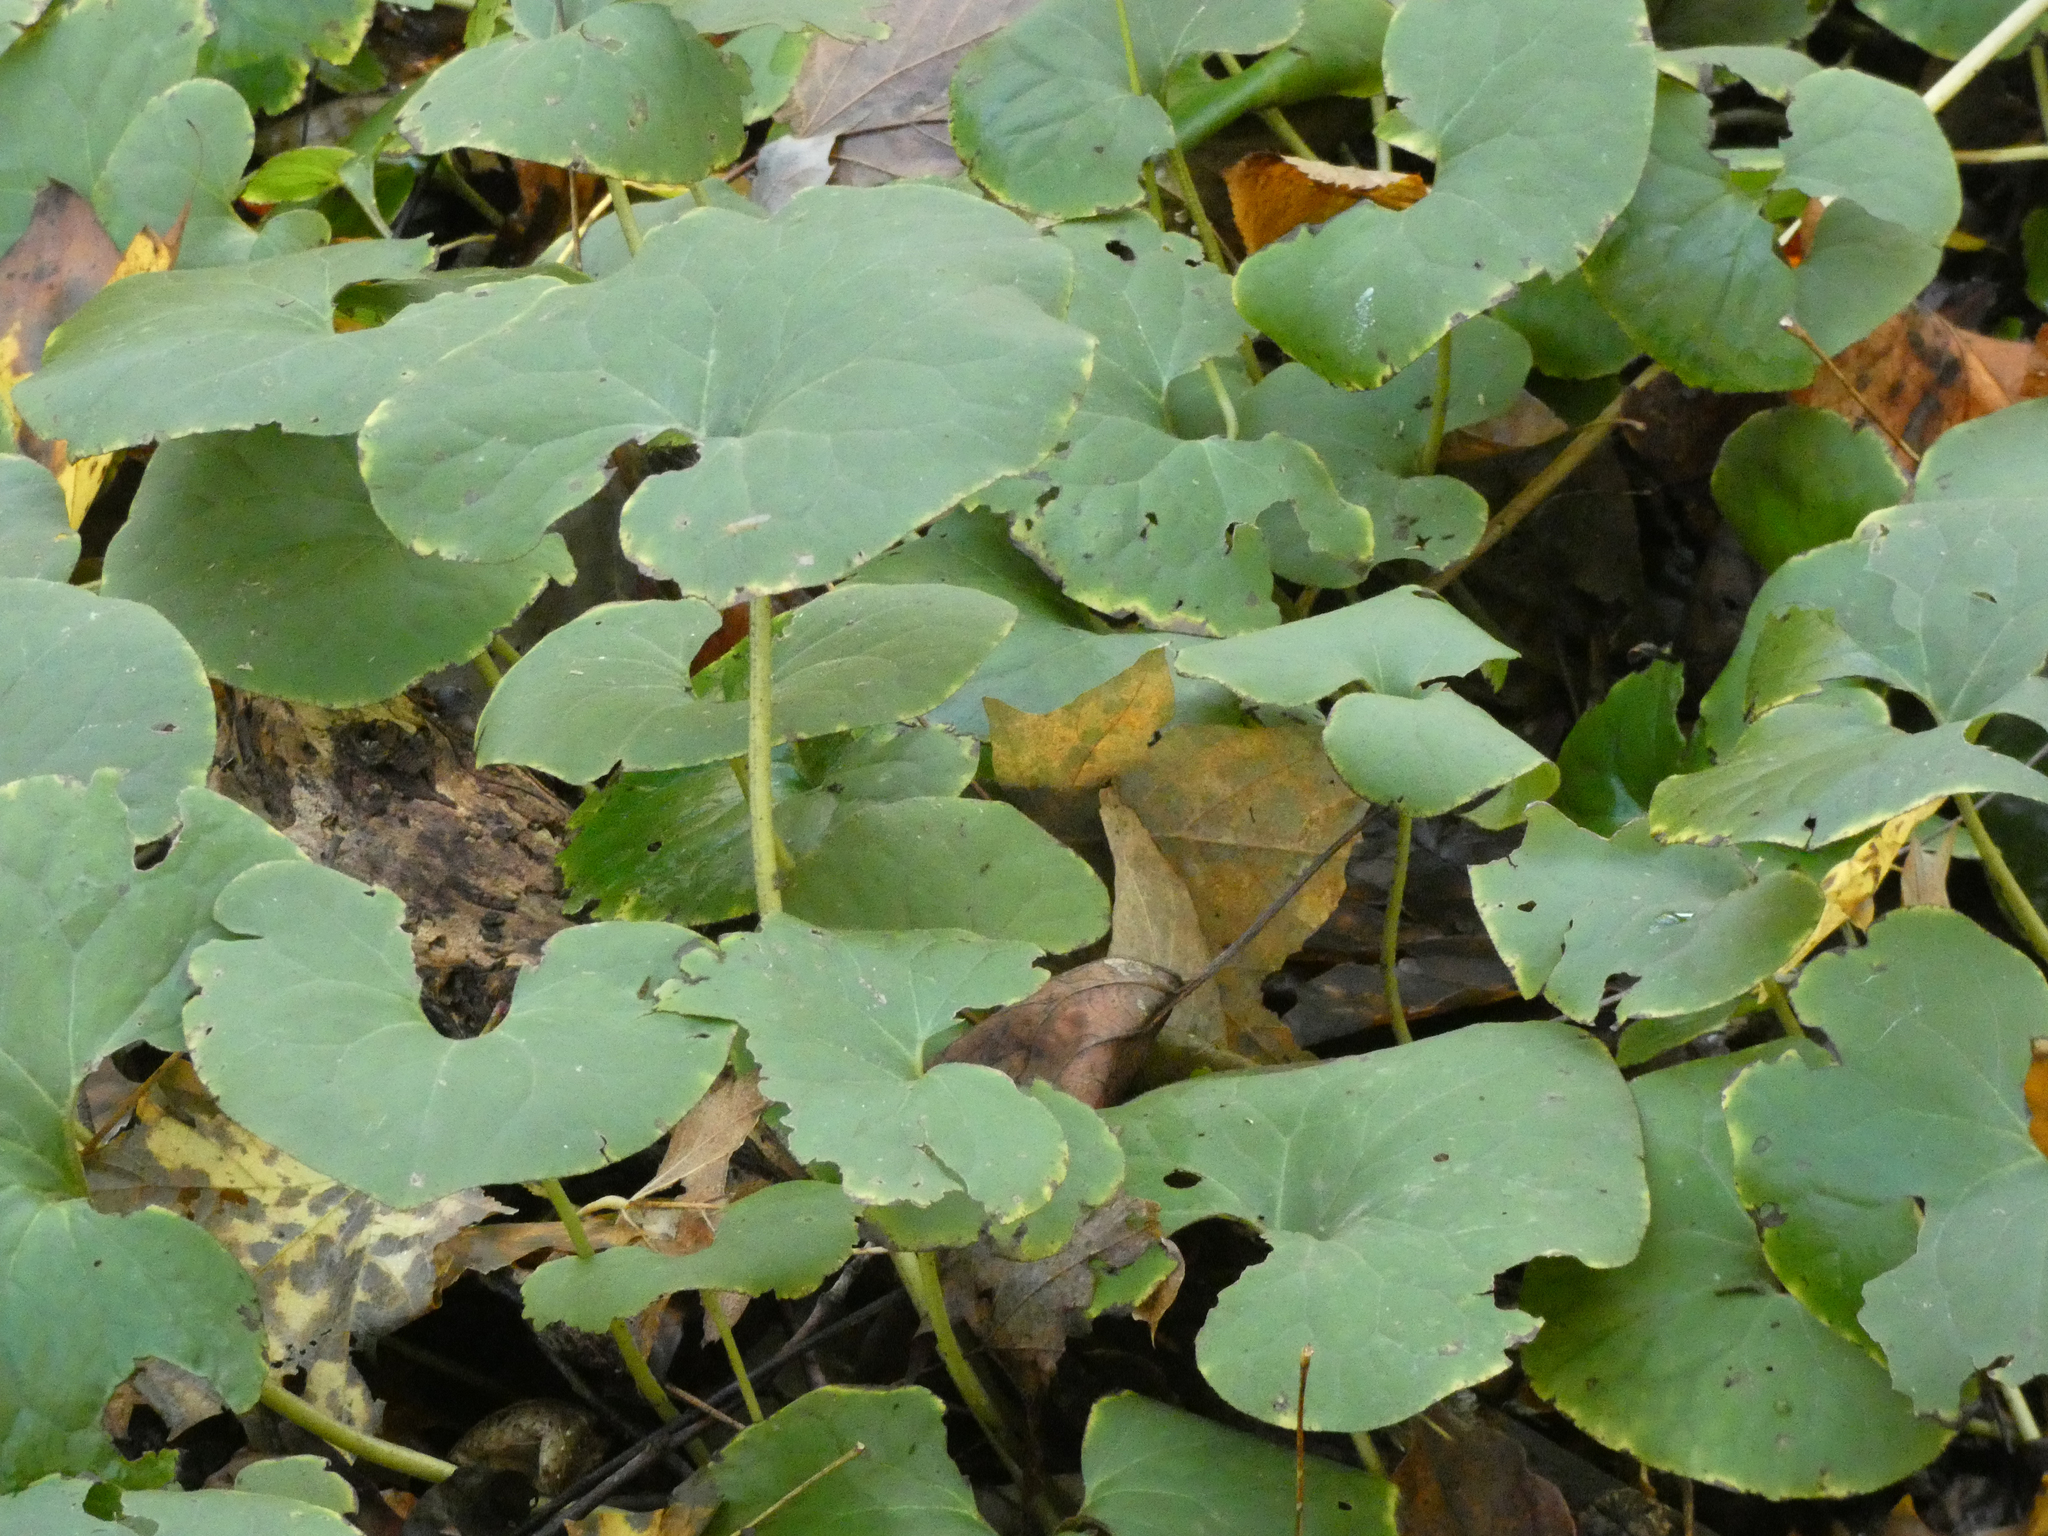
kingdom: Plantae
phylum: Tracheophyta
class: Magnoliopsida
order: Piperales
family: Aristolochiaceae
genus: Asarum
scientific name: Asarum canadense
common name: Wild ginger
